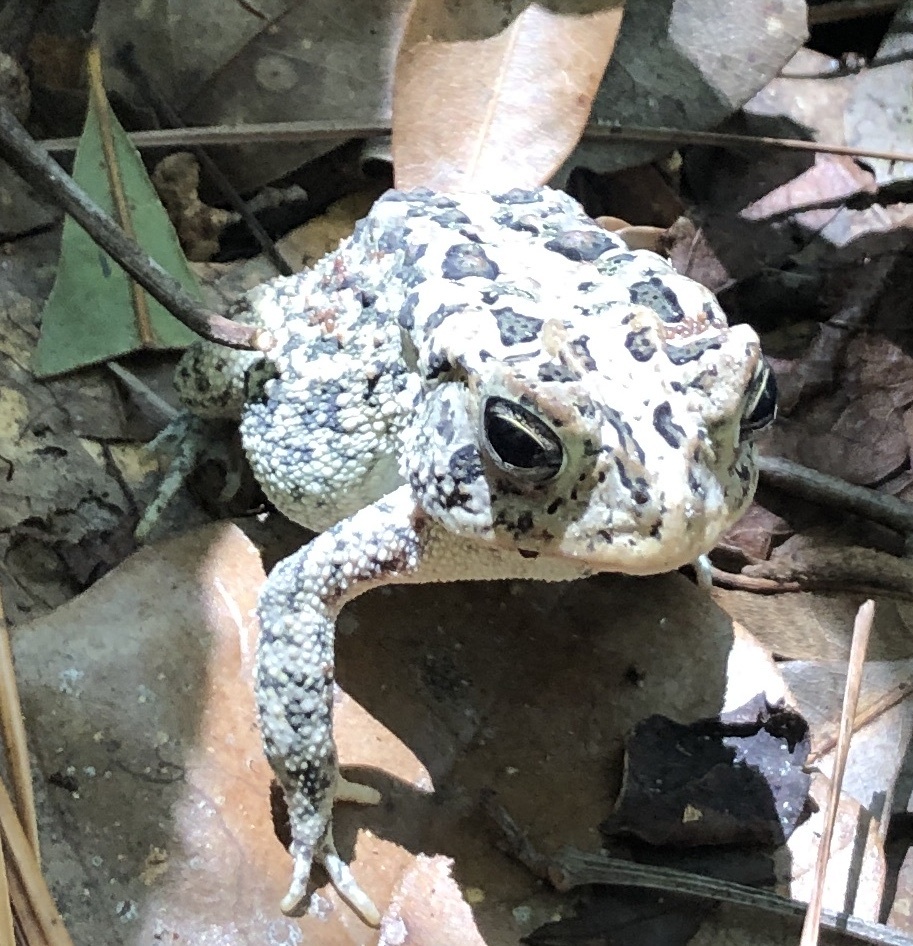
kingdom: Animalia
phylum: Chordata
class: Amphibia
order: Anura
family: Bufonidae
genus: Anaxyrus
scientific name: Anaxyrus terrestris
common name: Southern toad
